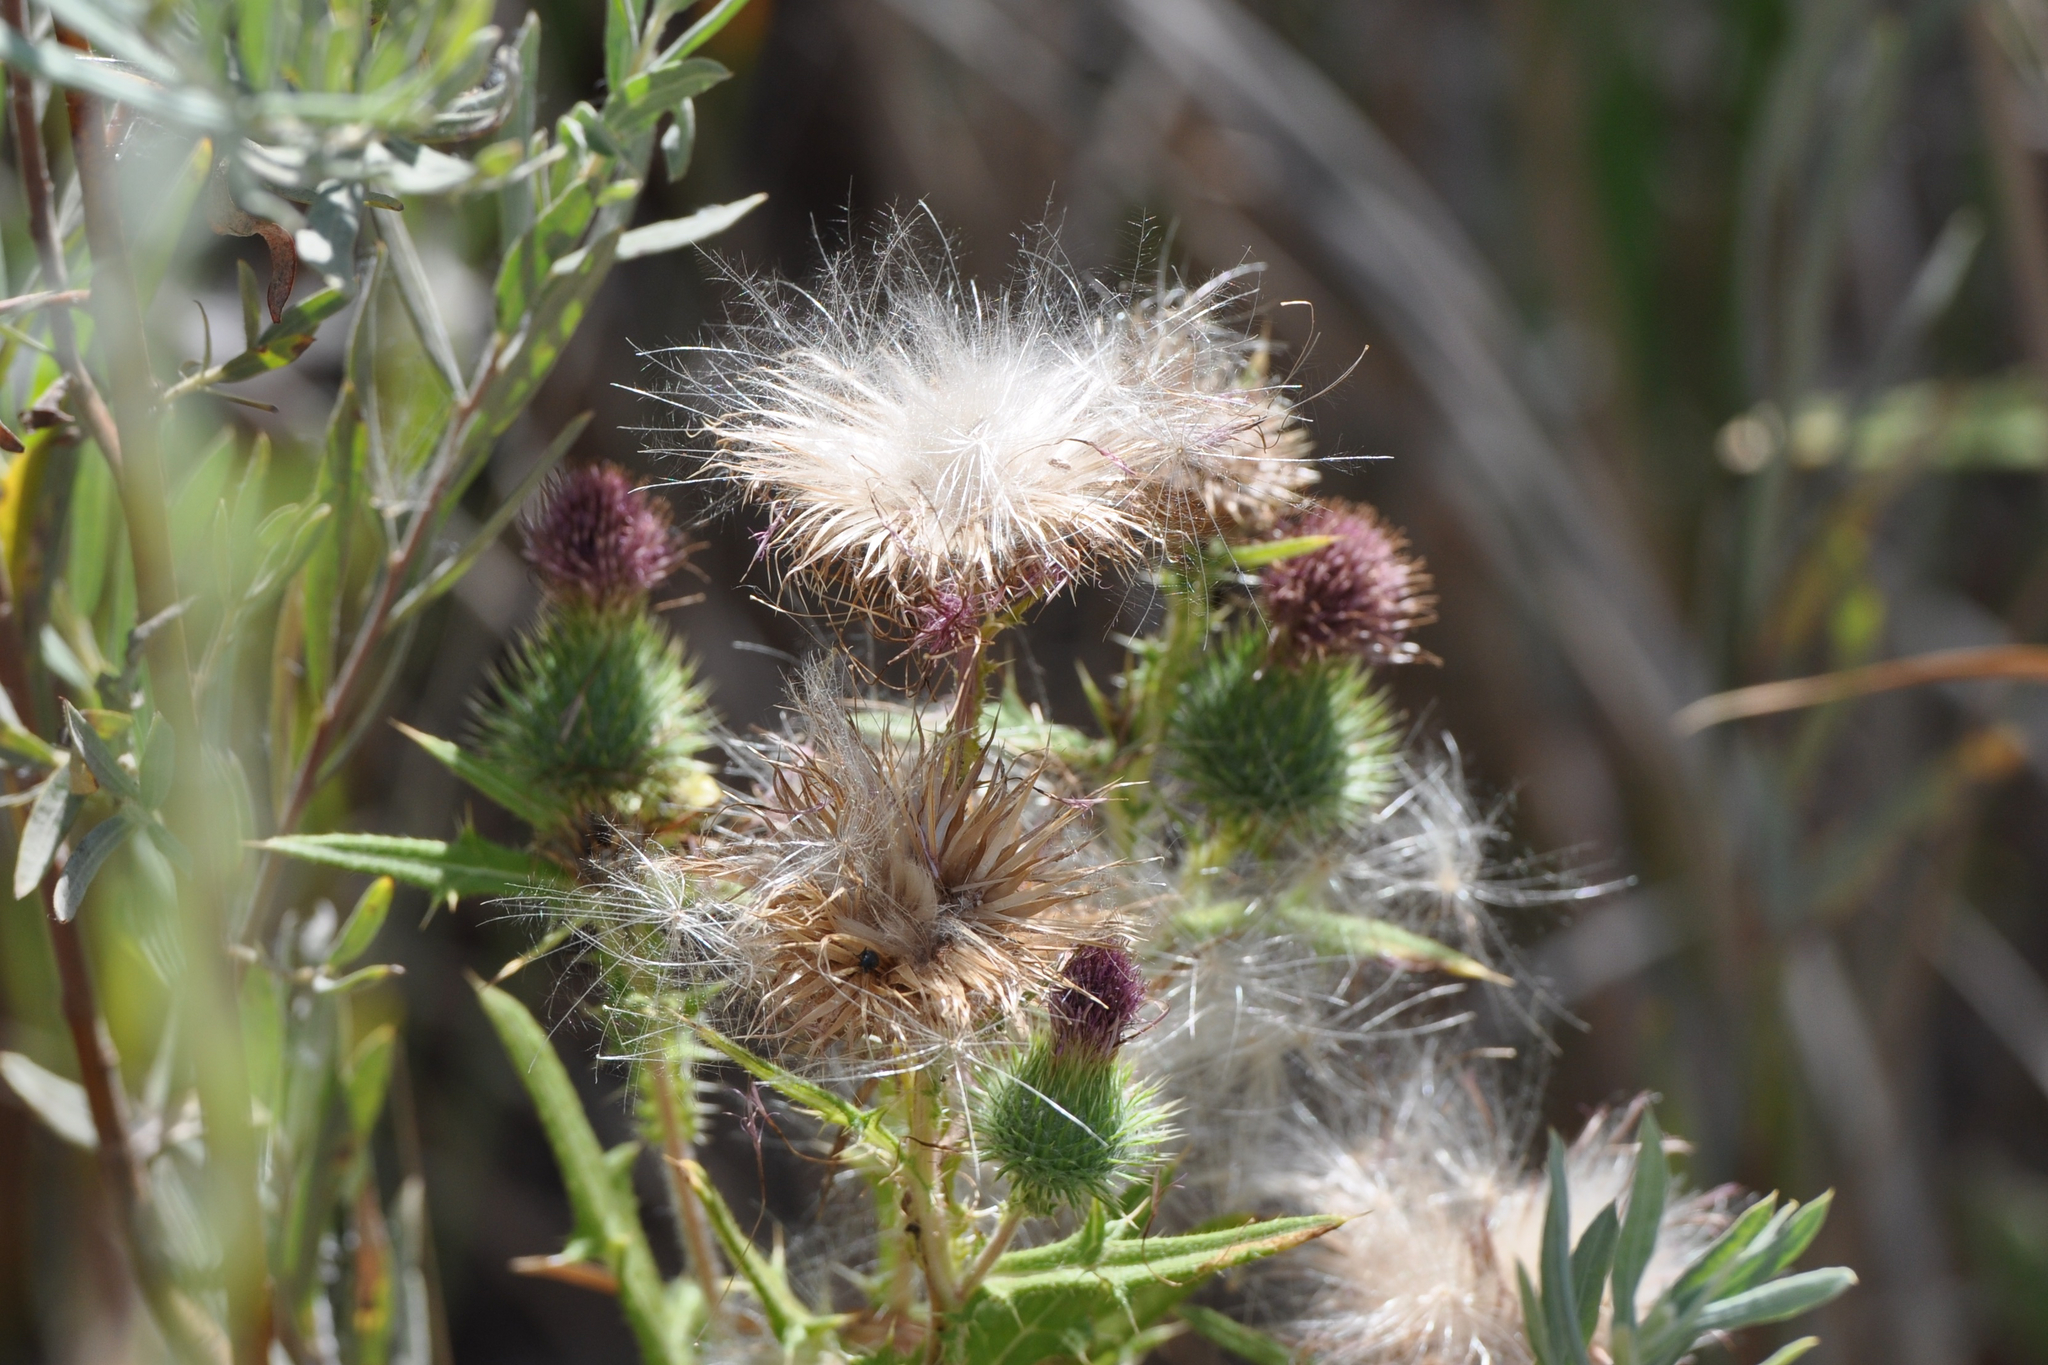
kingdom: Plantae
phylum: Tracheophyta
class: Magnoliopsida
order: Asterales
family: Asteraceae
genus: Cirsium
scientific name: Cirsium vulgare
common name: Bull thistle
